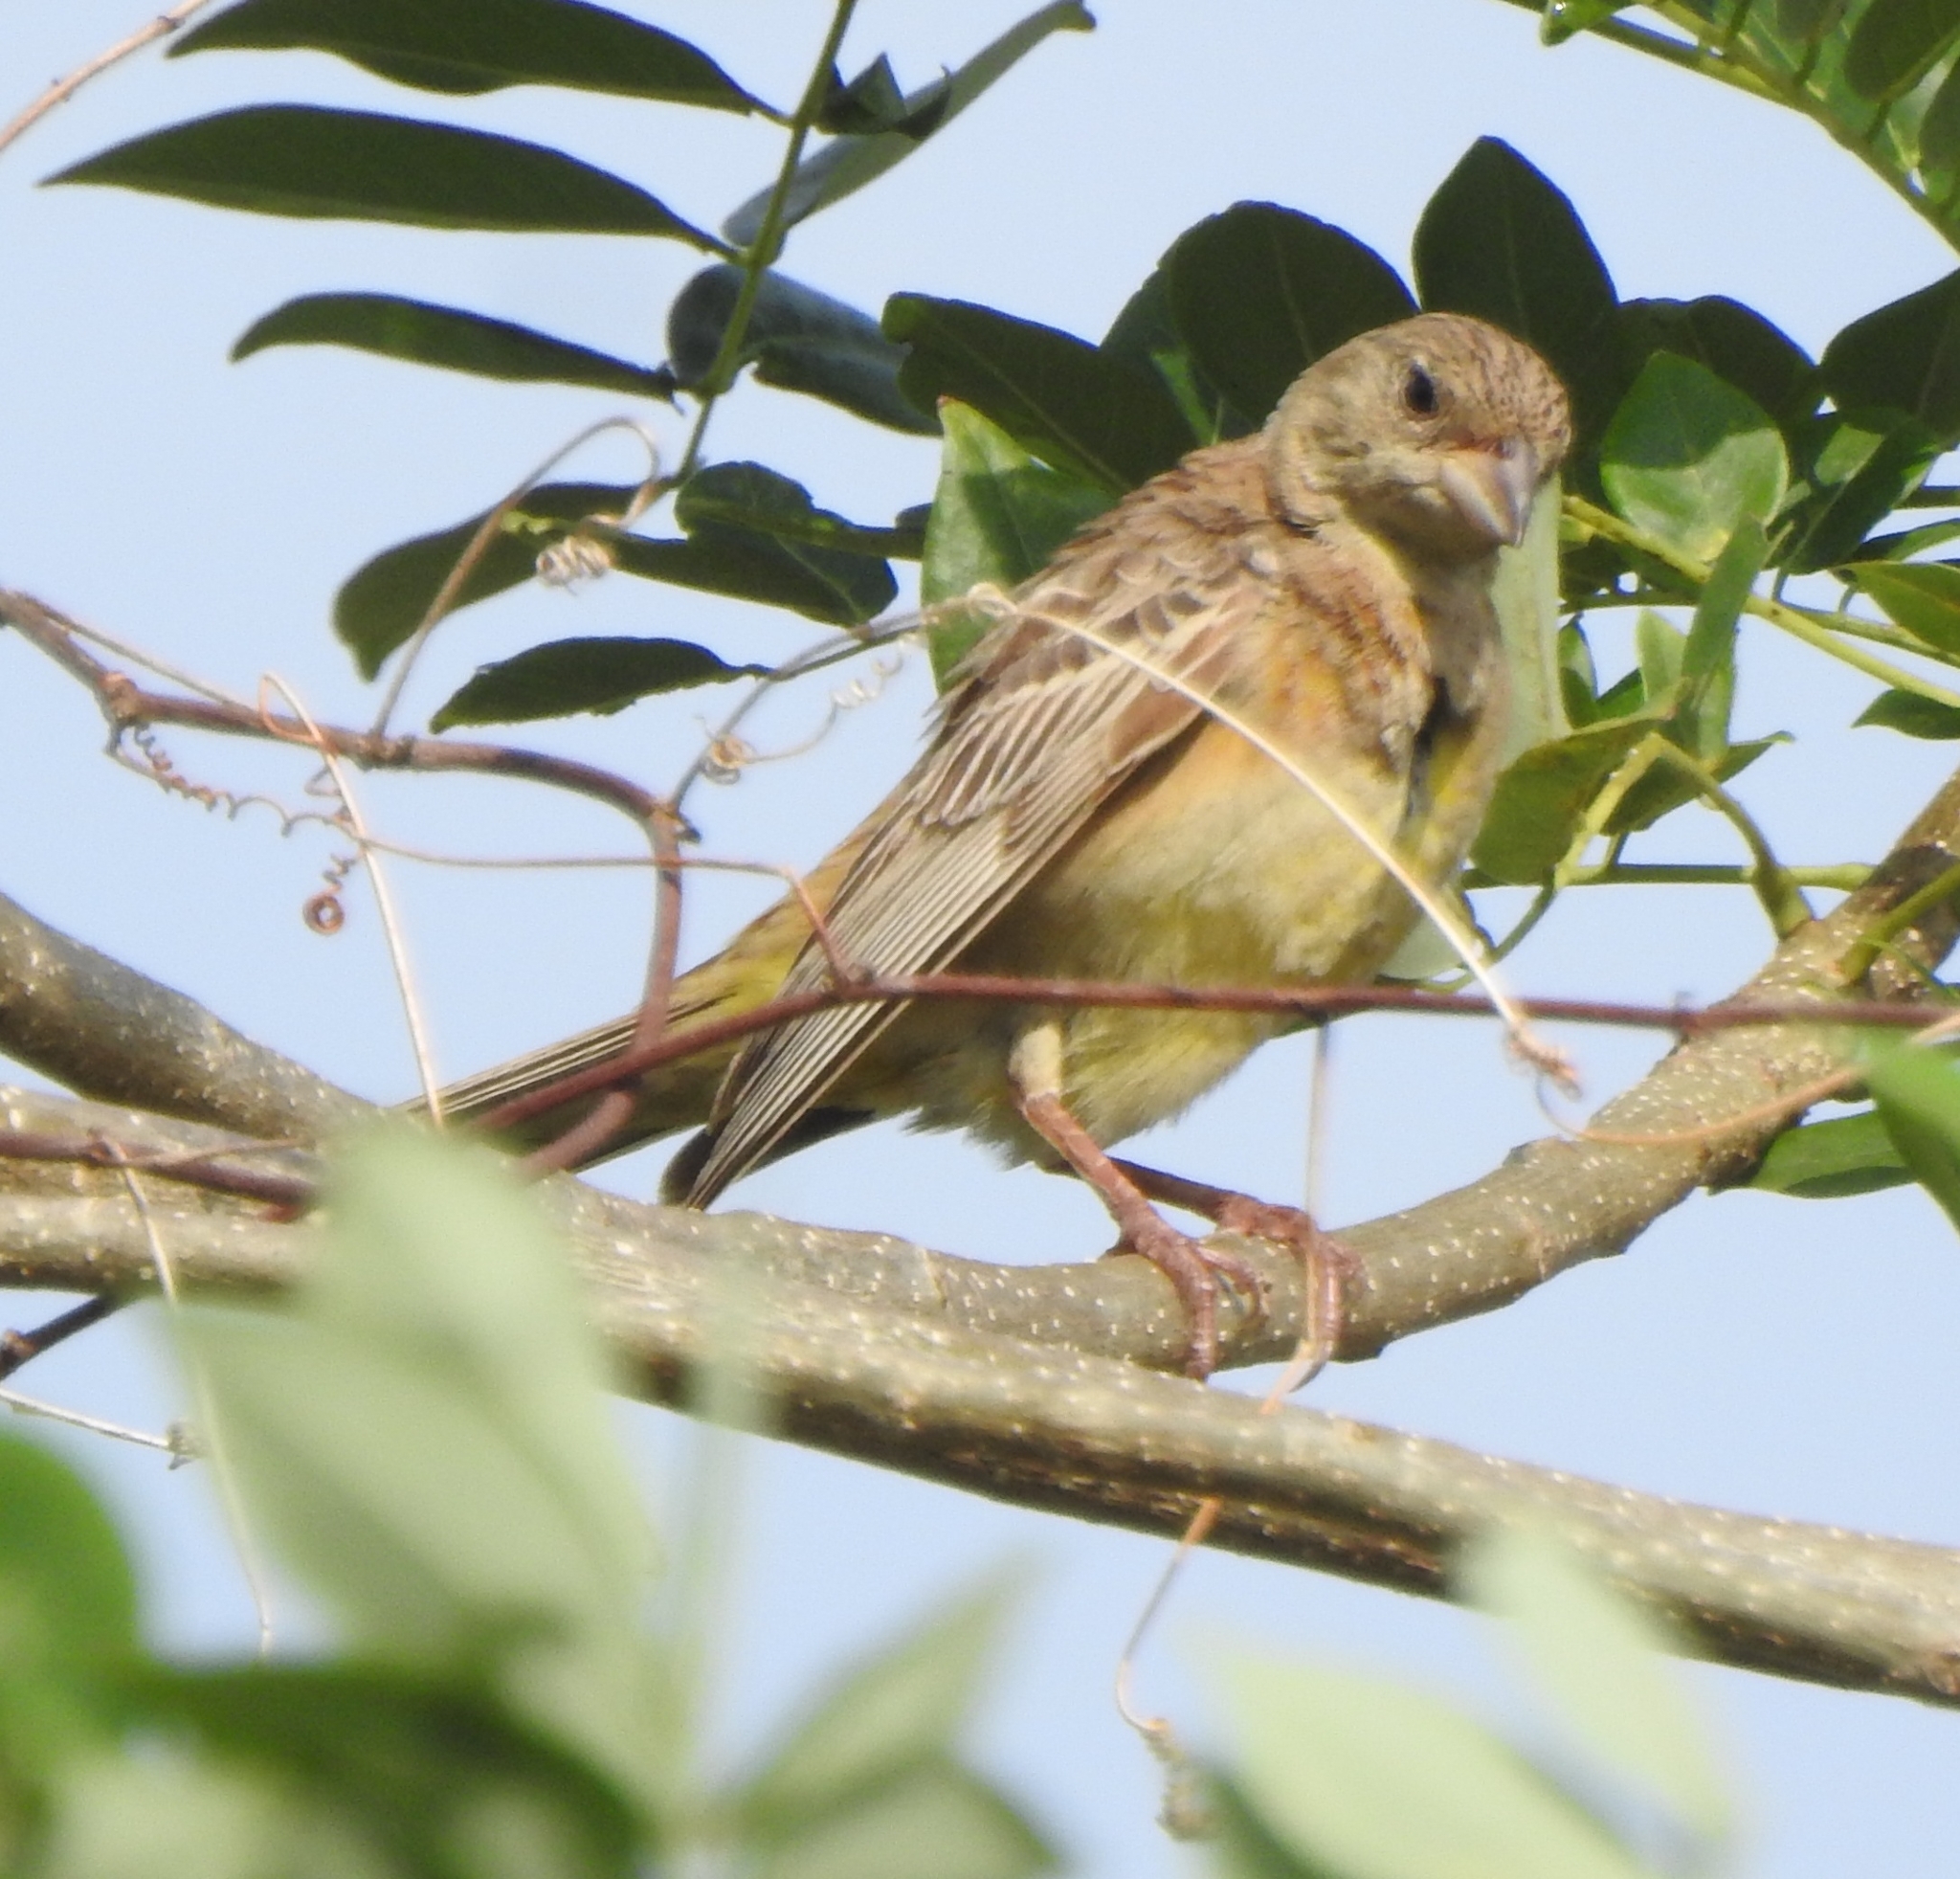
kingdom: Animalia
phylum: Chordata
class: Aves
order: Passeriformes
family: Emberizidae
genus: Emberiza
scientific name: Emberiza melanocephala
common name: Black-headed bunting
